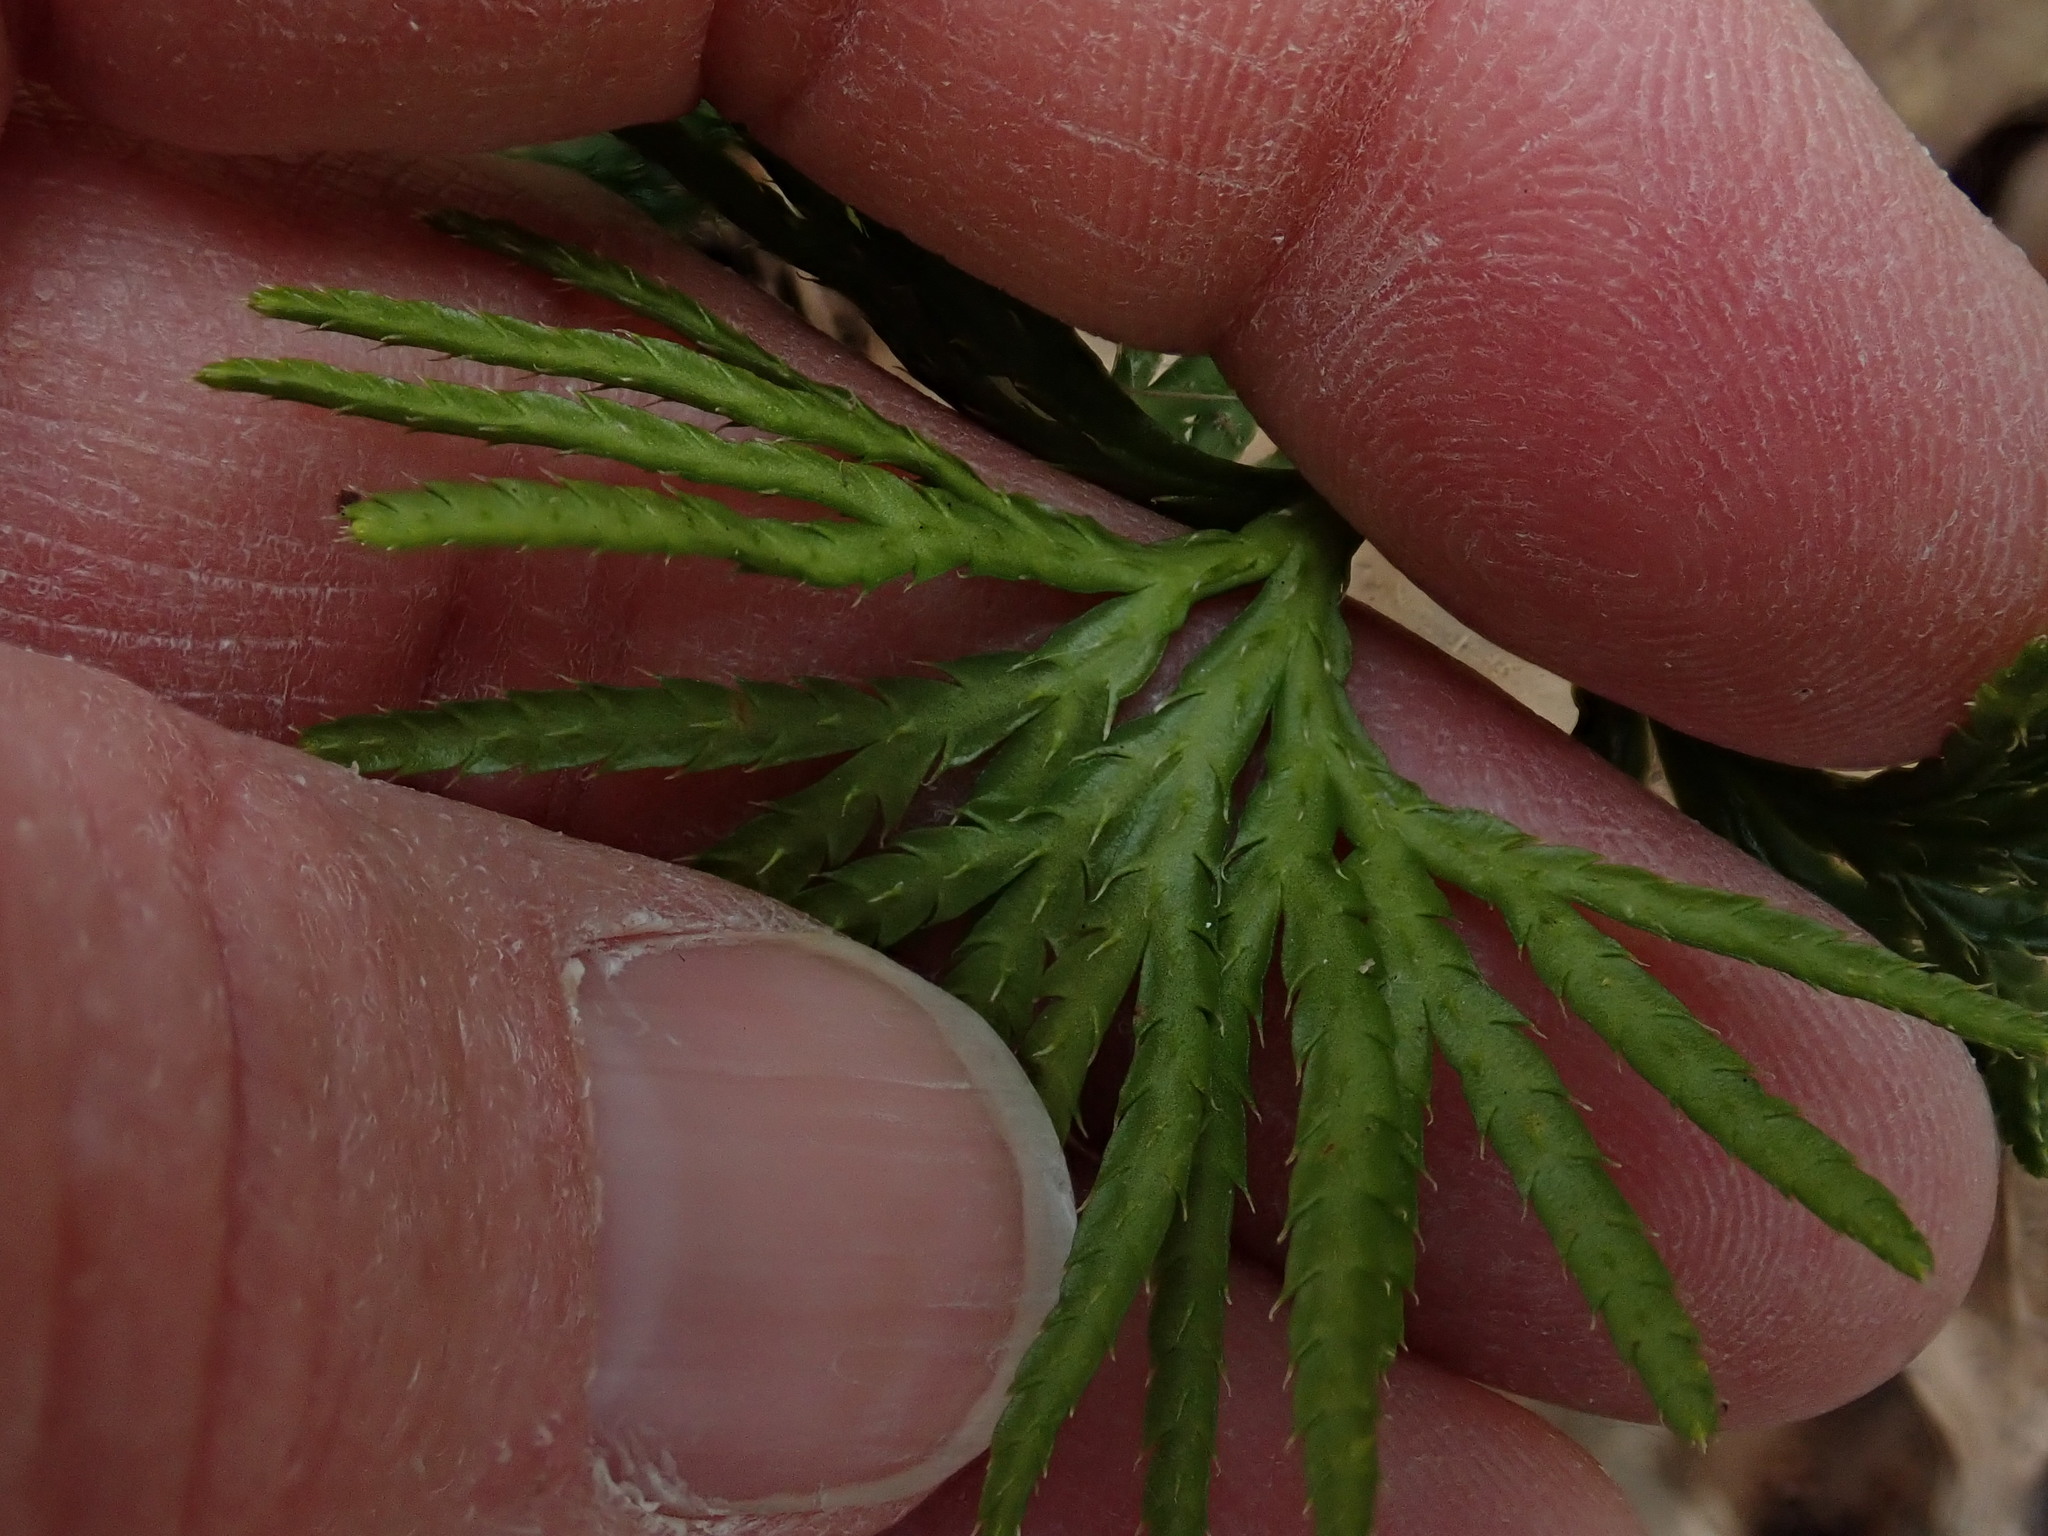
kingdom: Plantae
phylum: Tracheophyta
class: Lycopodiopsida
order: Lycopodiales
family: Lycopodiaceae
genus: Diphasiastrum
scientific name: Diphasiastrum digitatum
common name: Southern running-pine
